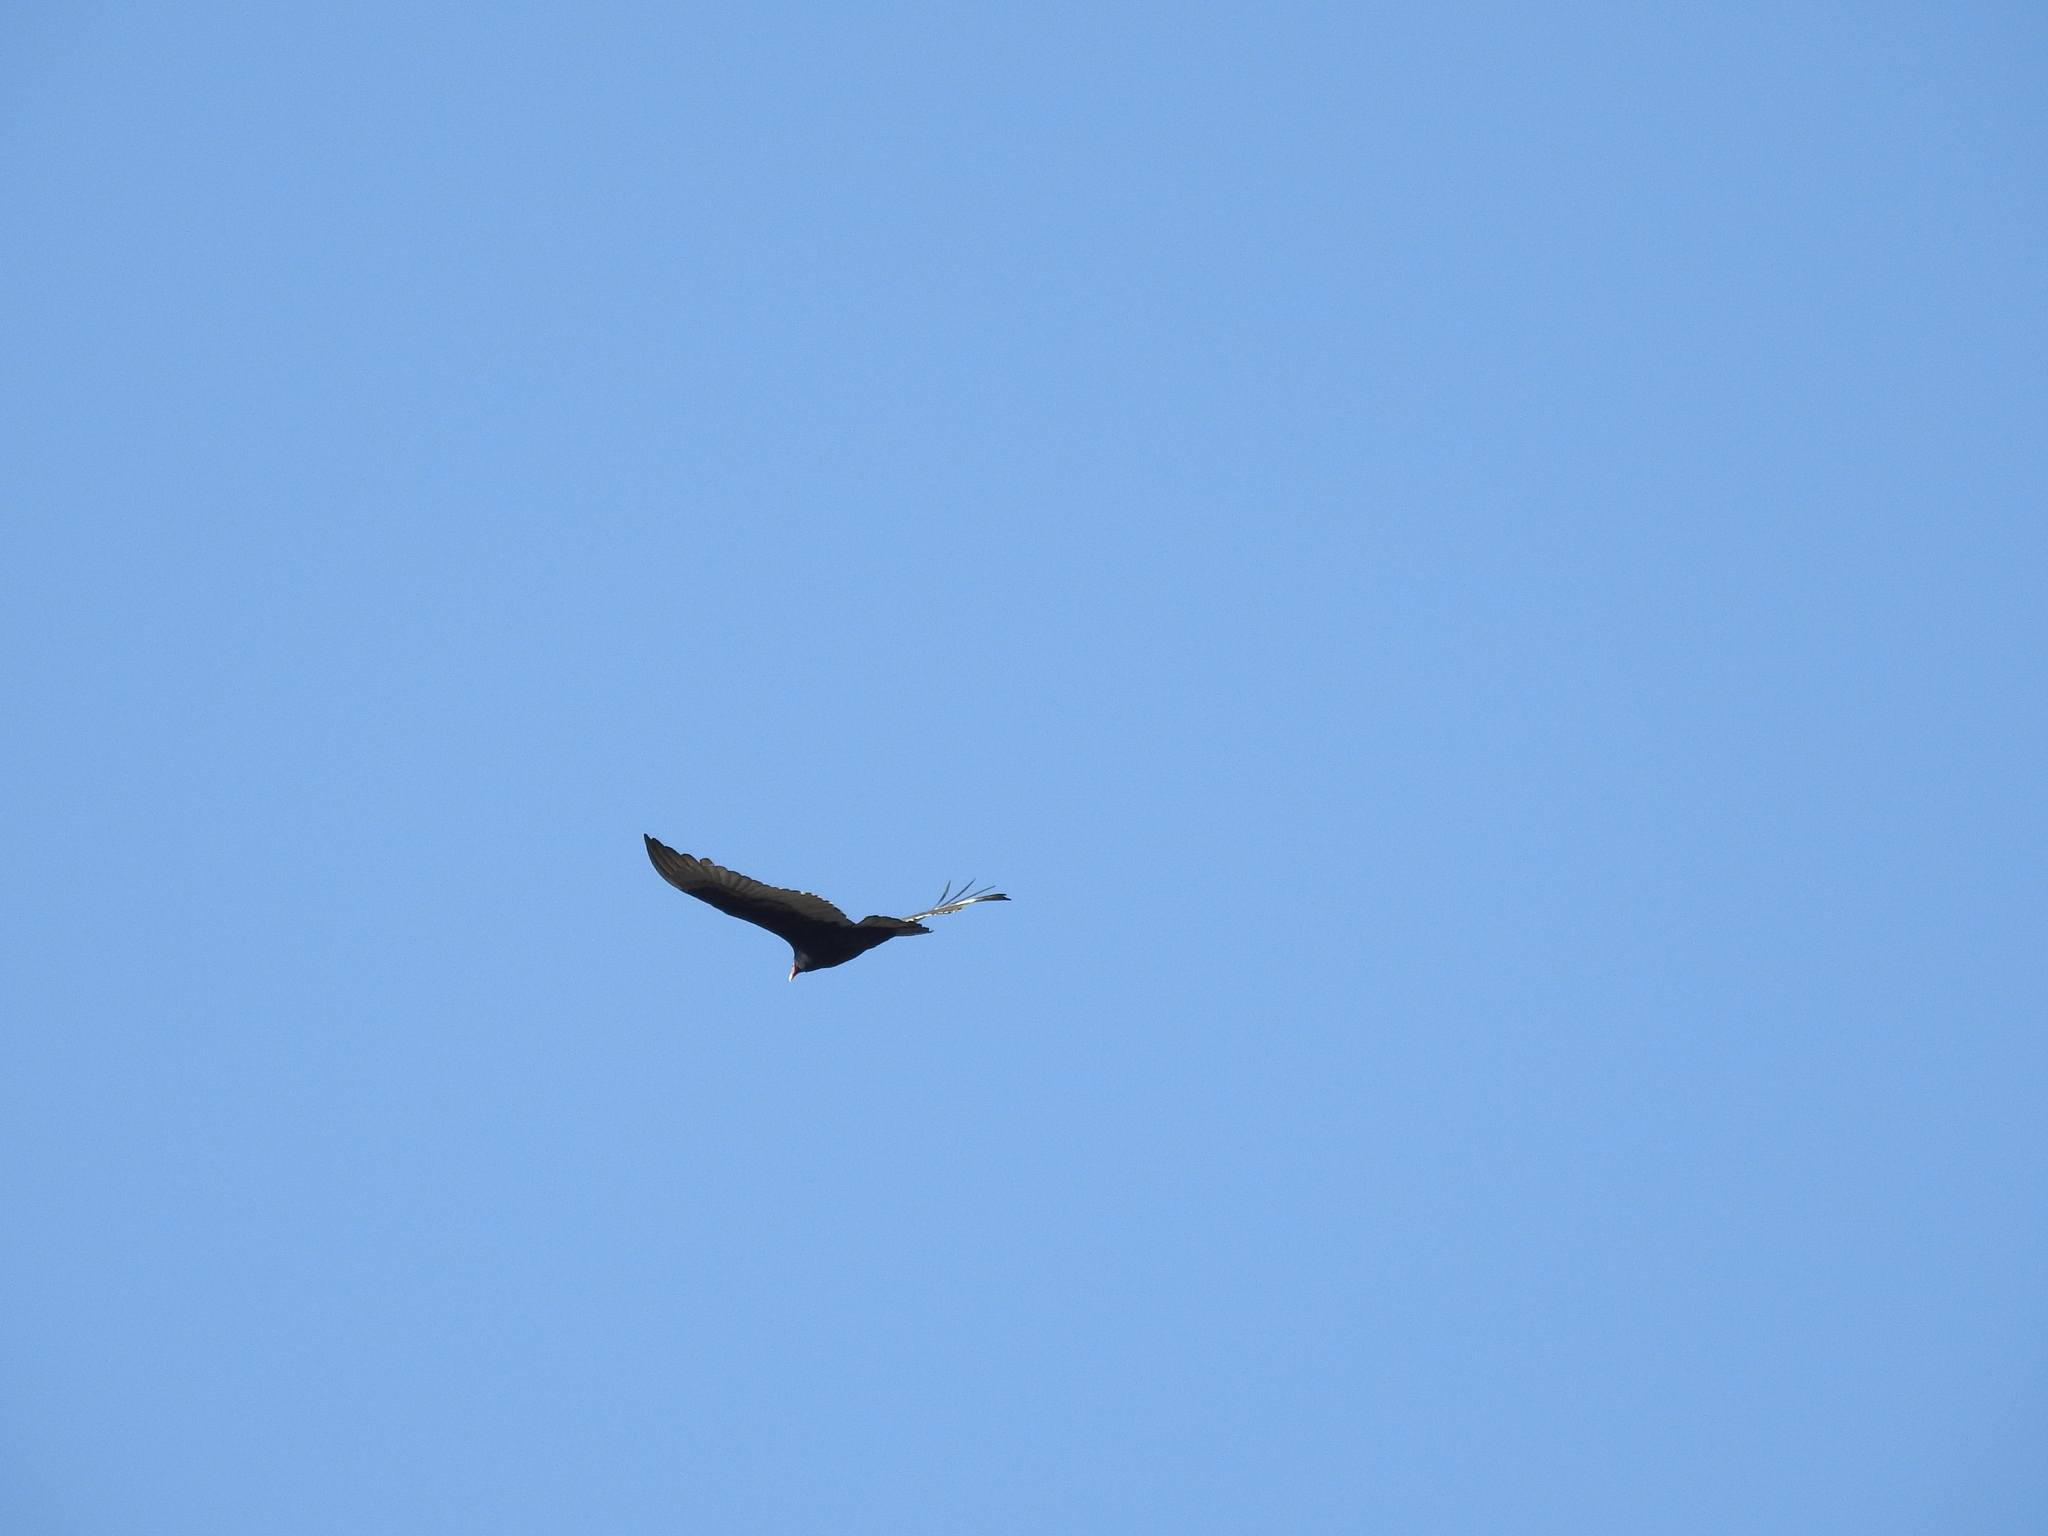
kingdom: Animalia
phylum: Chordata
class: Aves
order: Accipitriformes
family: Cathartidae
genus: Cathartes
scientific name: Cathartes aura
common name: Turkey vulture
